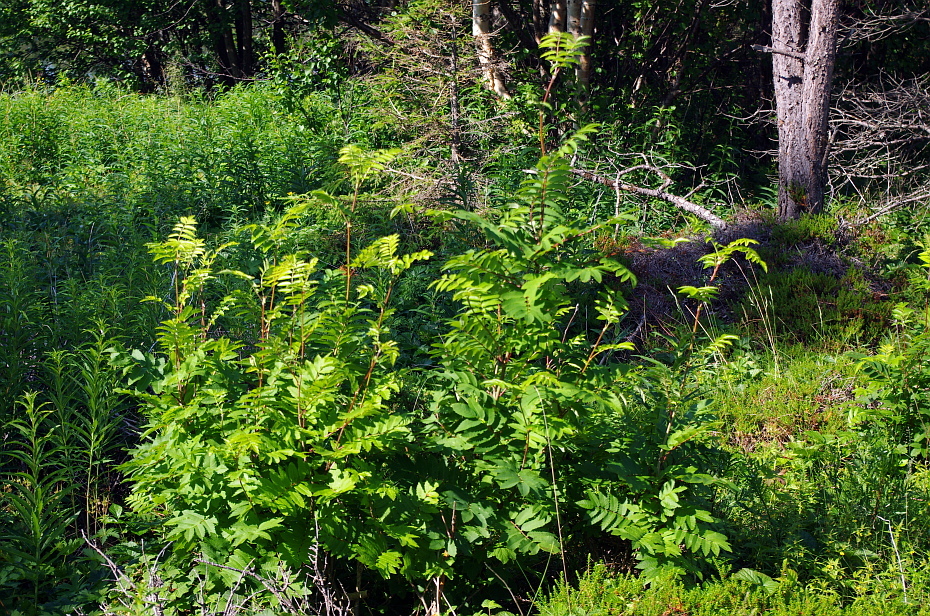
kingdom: Plantae
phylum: Tracheophyta
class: Magnoliopsida
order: Rosales
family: Rosaceae
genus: Sorbus
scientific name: Sorbus aucuparia
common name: Rowan
